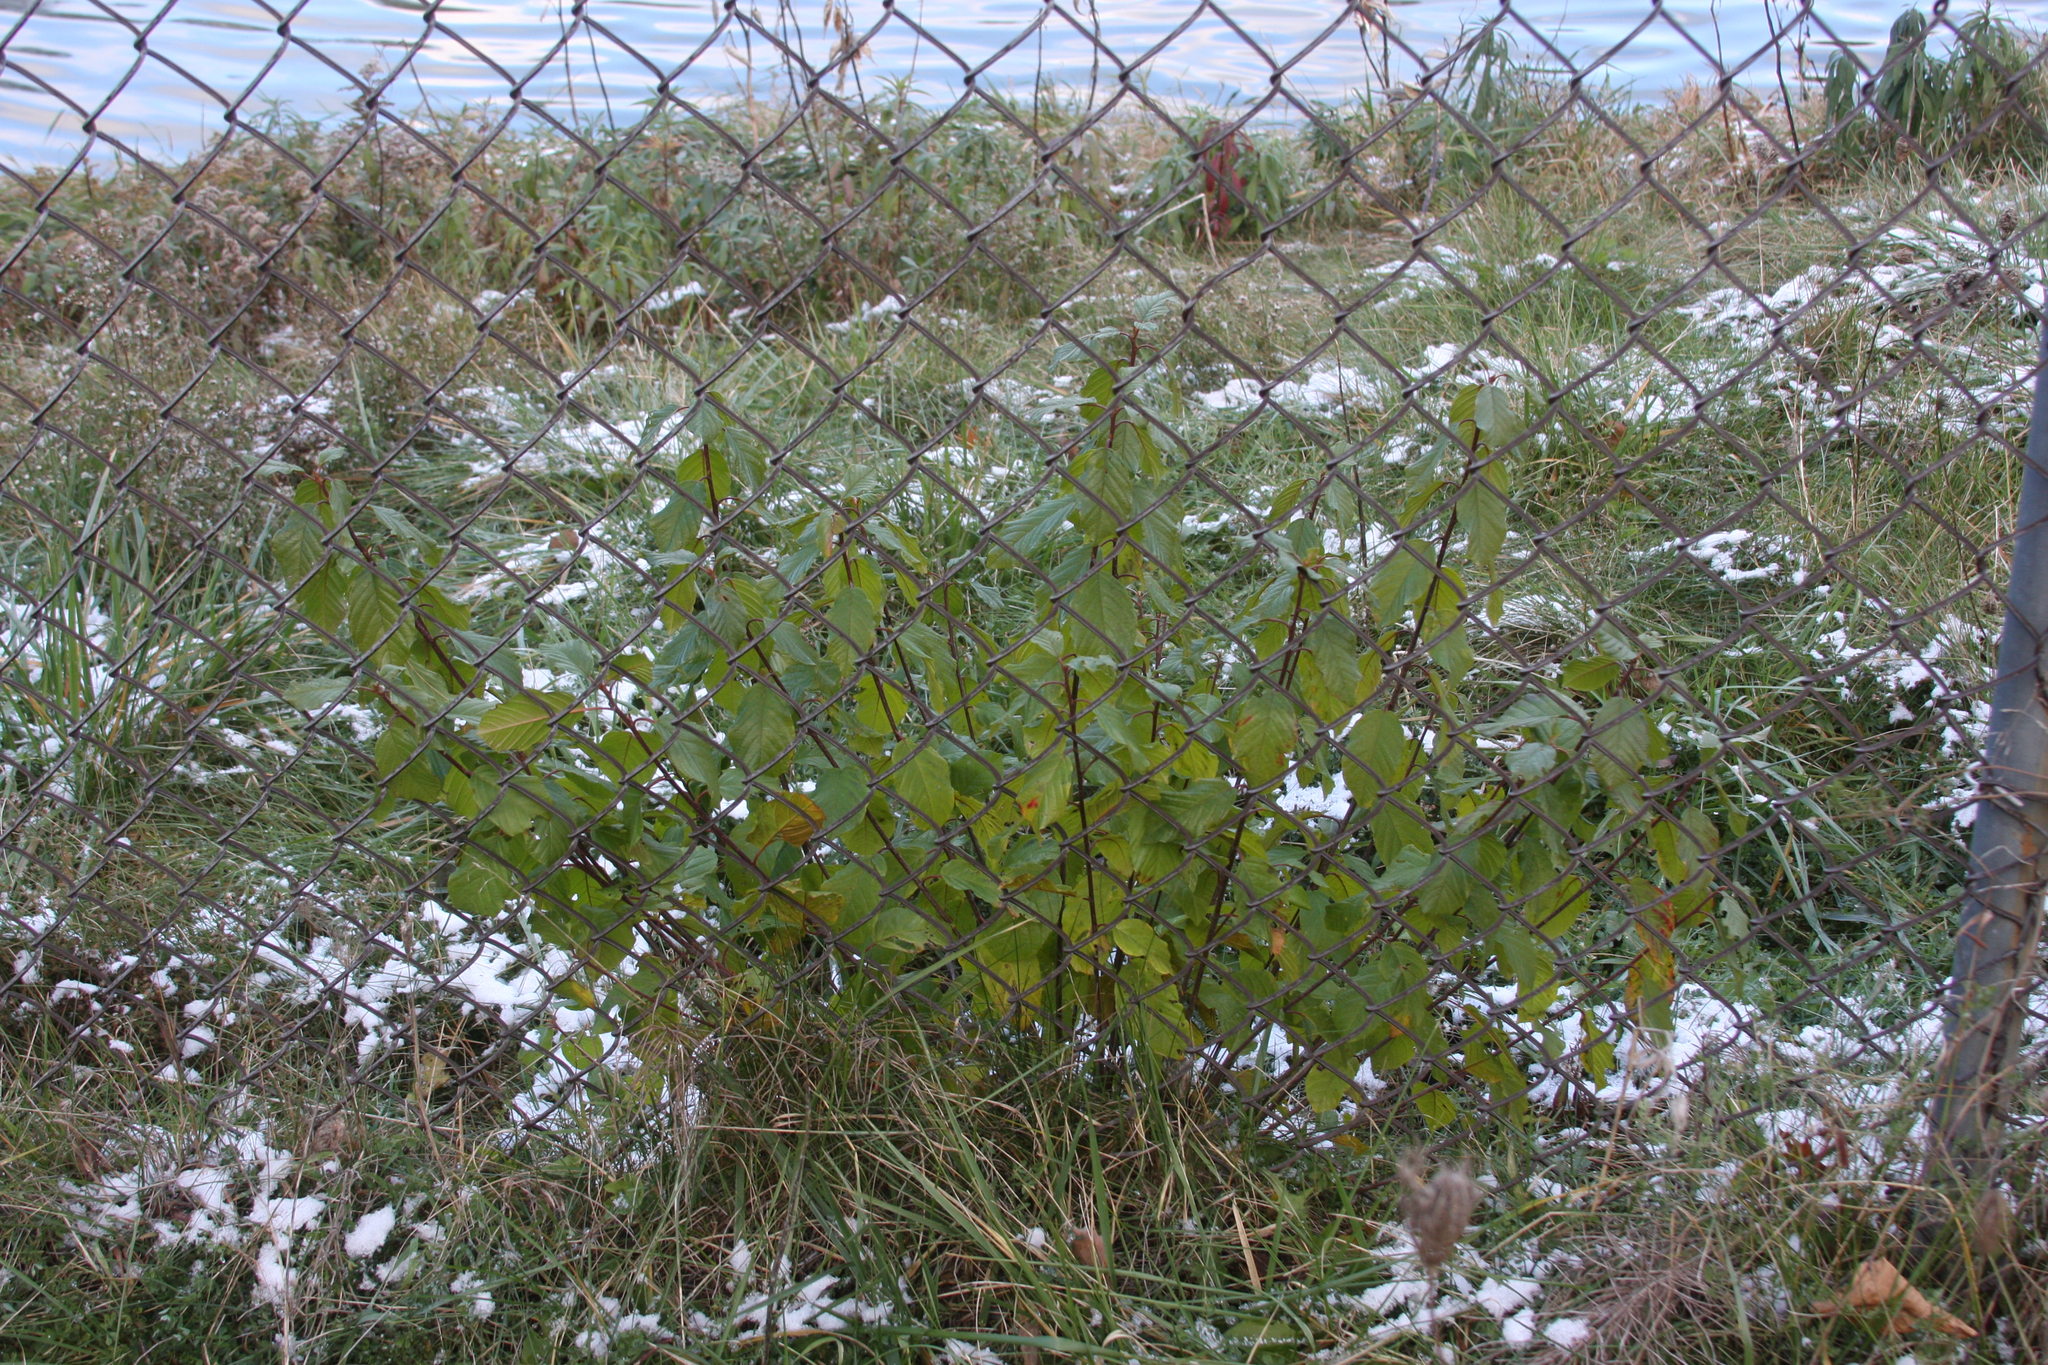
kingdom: Plantae
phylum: Tracheophyta
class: Magnoliopsida
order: Rosales
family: Rhamnaceae
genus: Frangula
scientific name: Frangula alnus
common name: Alder buckthorn
